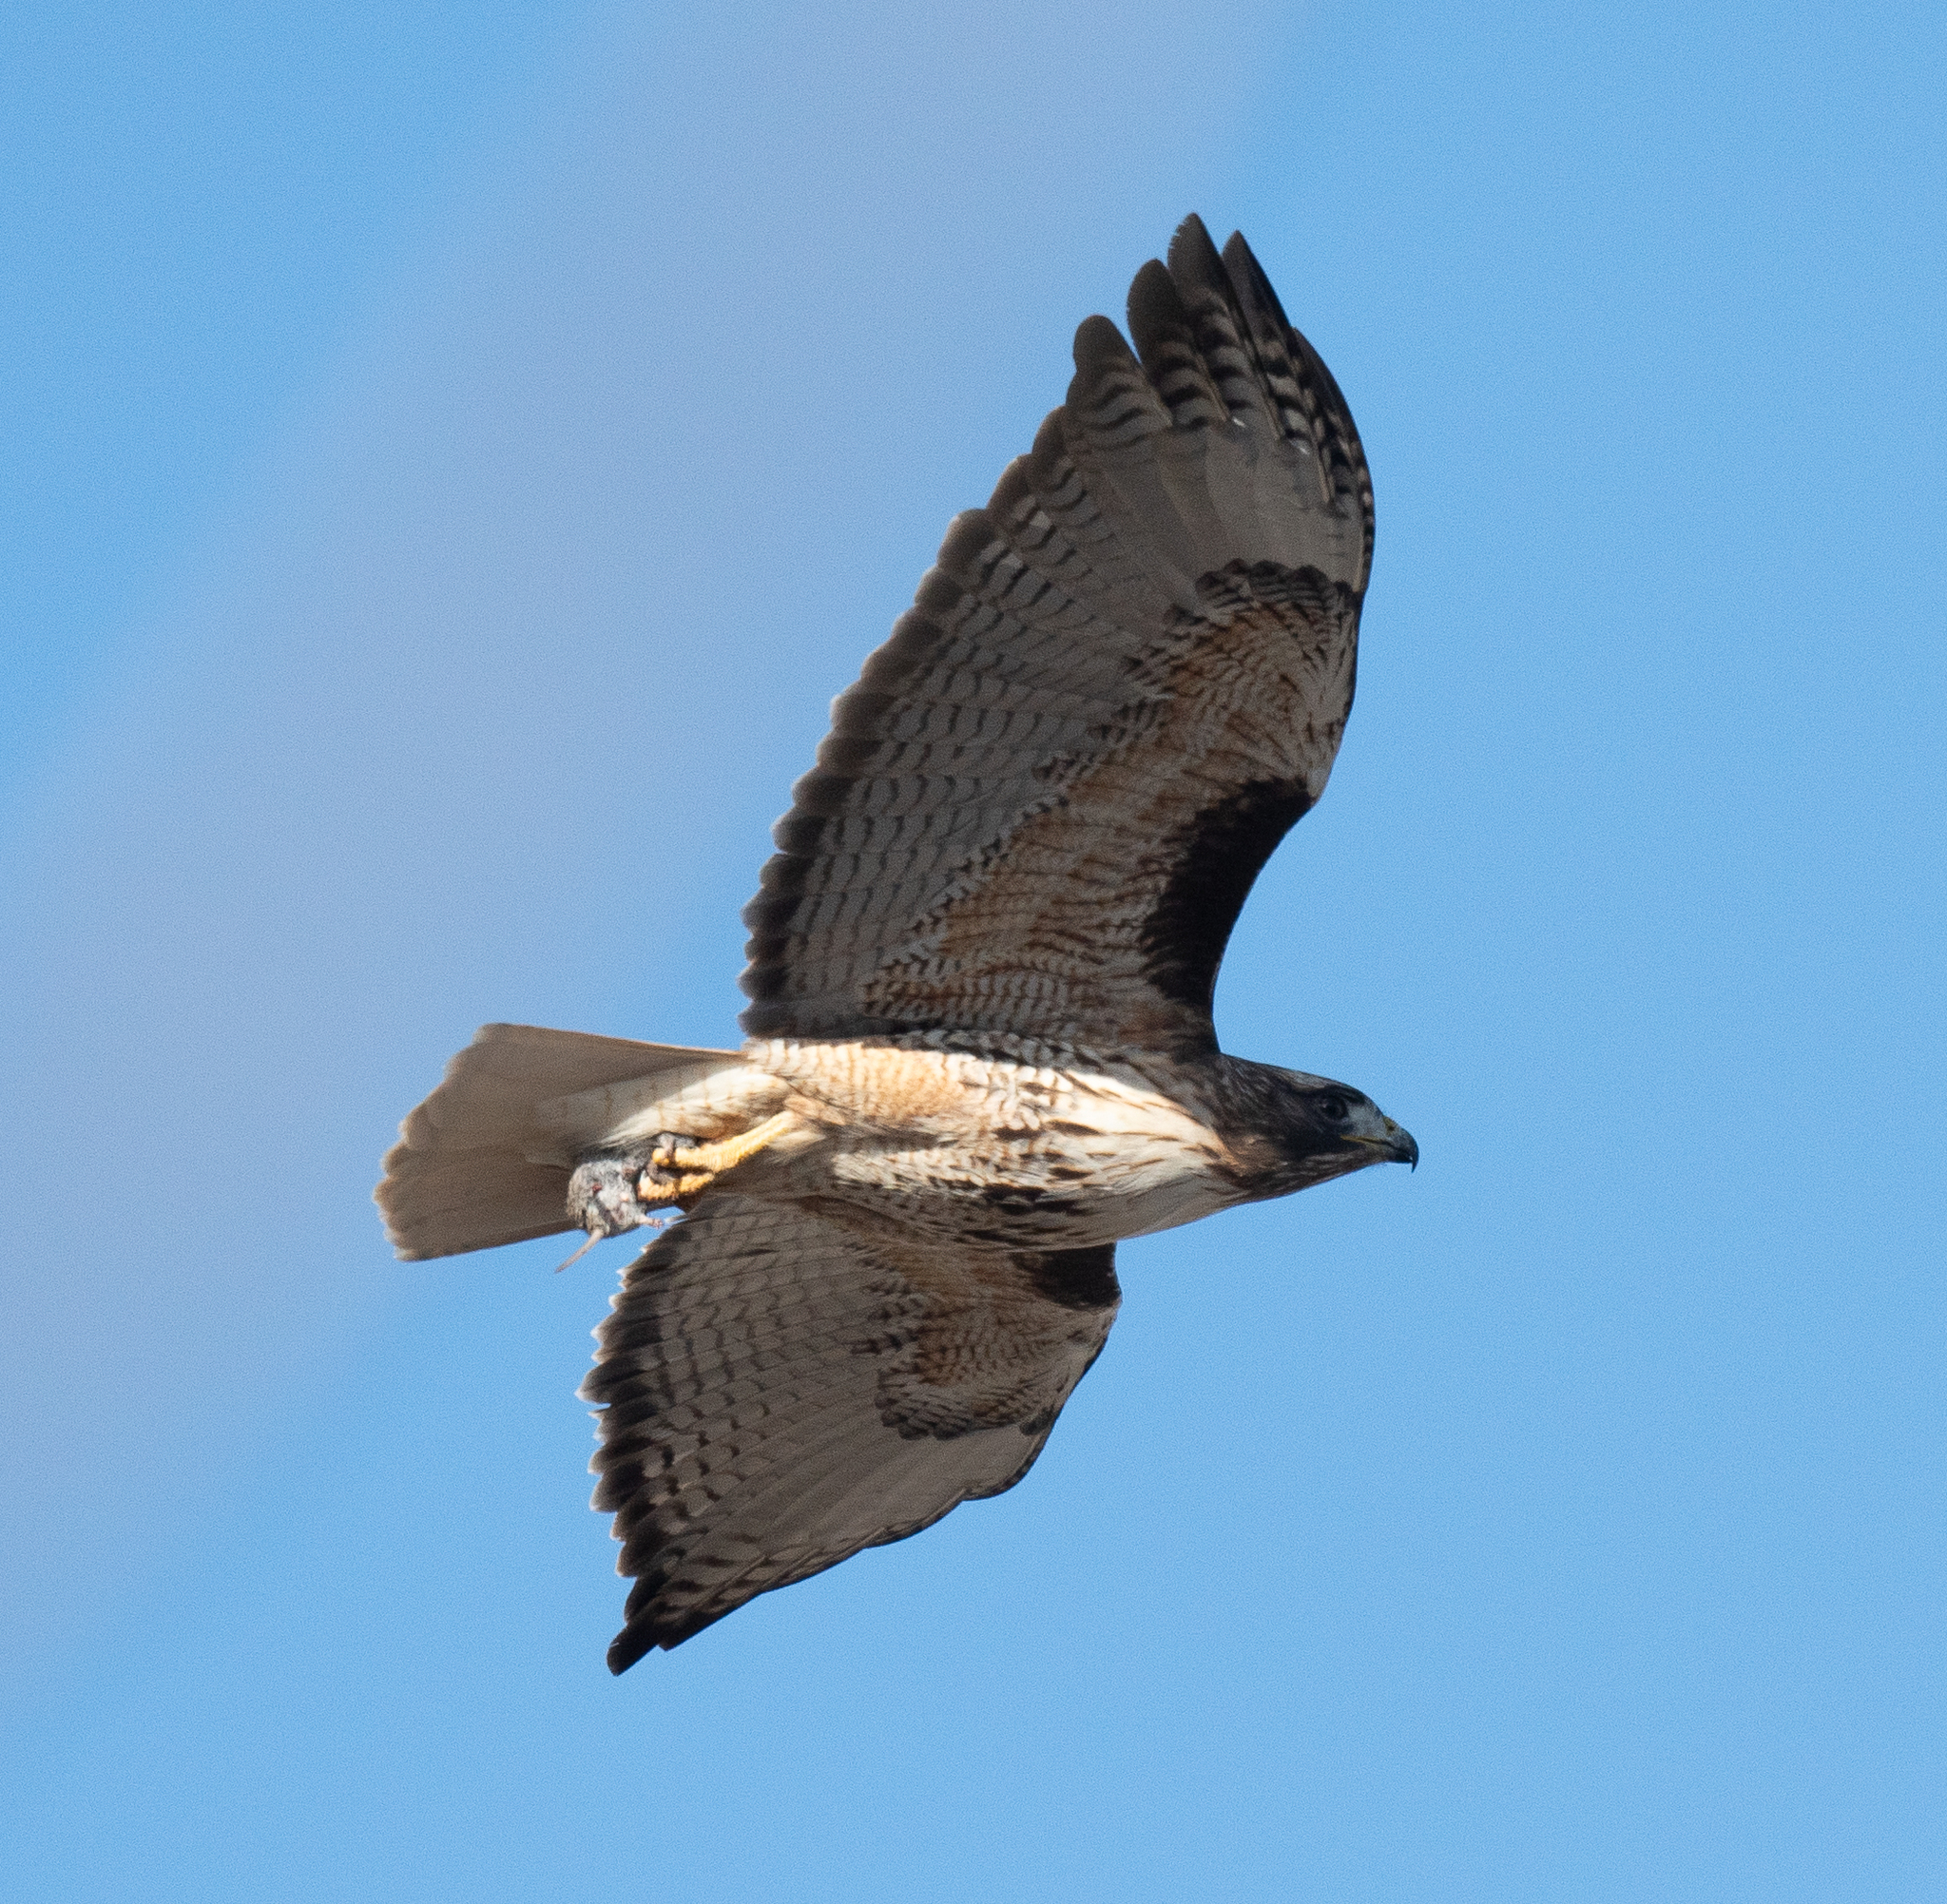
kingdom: Animalia
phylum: Chordata
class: Aves
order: Accipitriformes
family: Accipitridae
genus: Buteo
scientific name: Buteo jamaicensis
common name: Red-tailed hawk
